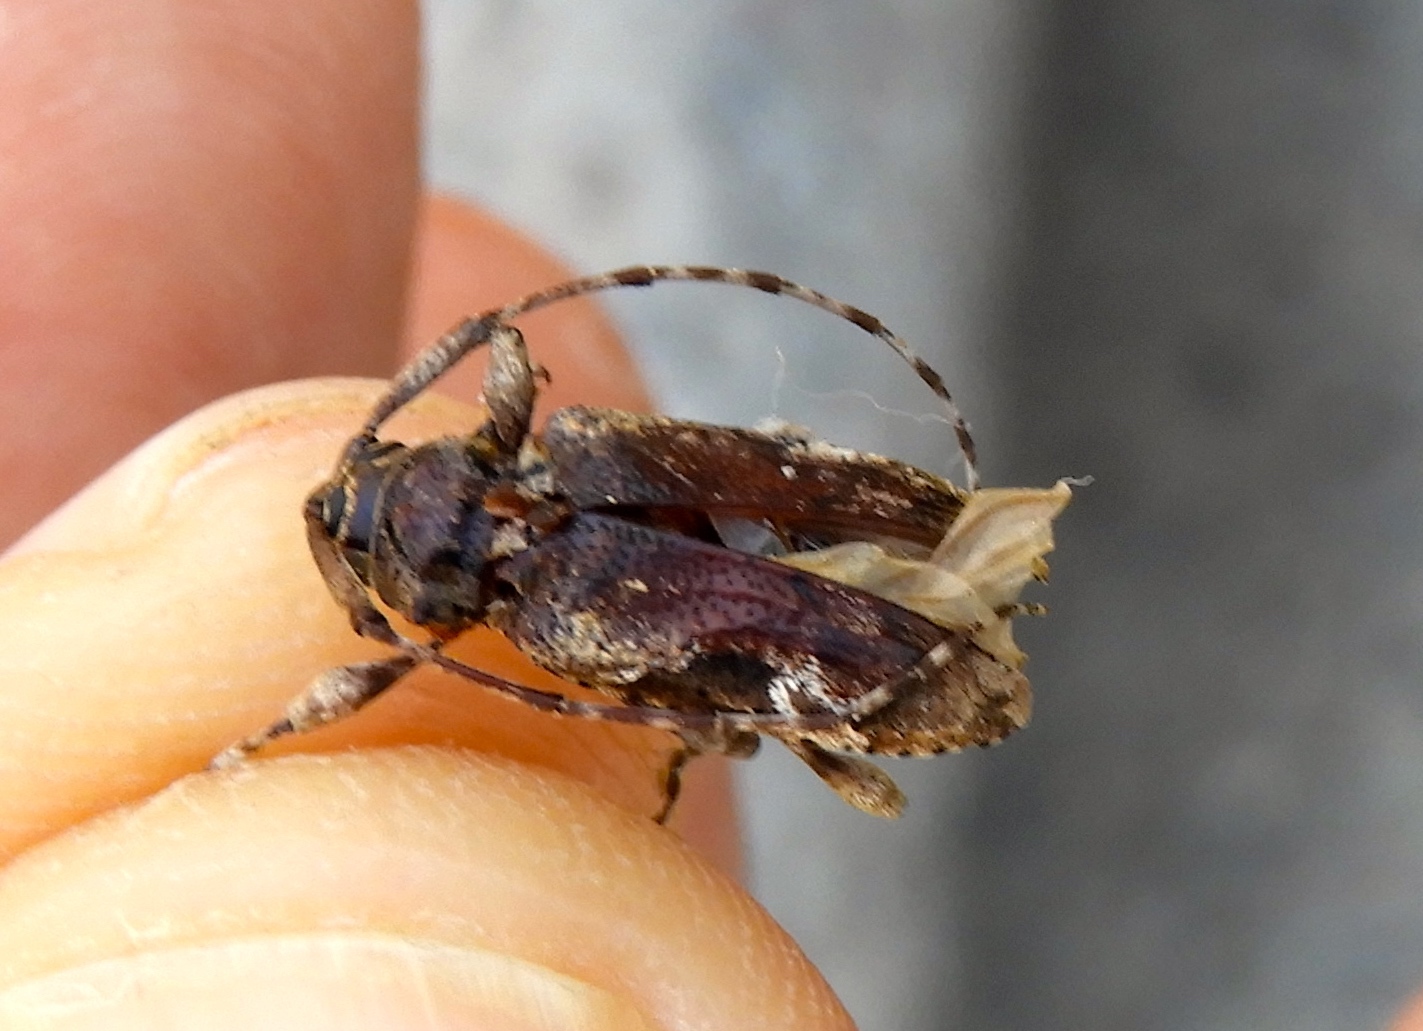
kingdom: Animalia
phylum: Arthropoda
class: Insecta
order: Coleoptera
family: Cerambycidae
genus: Lagocheirus
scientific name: Lagocheirus
